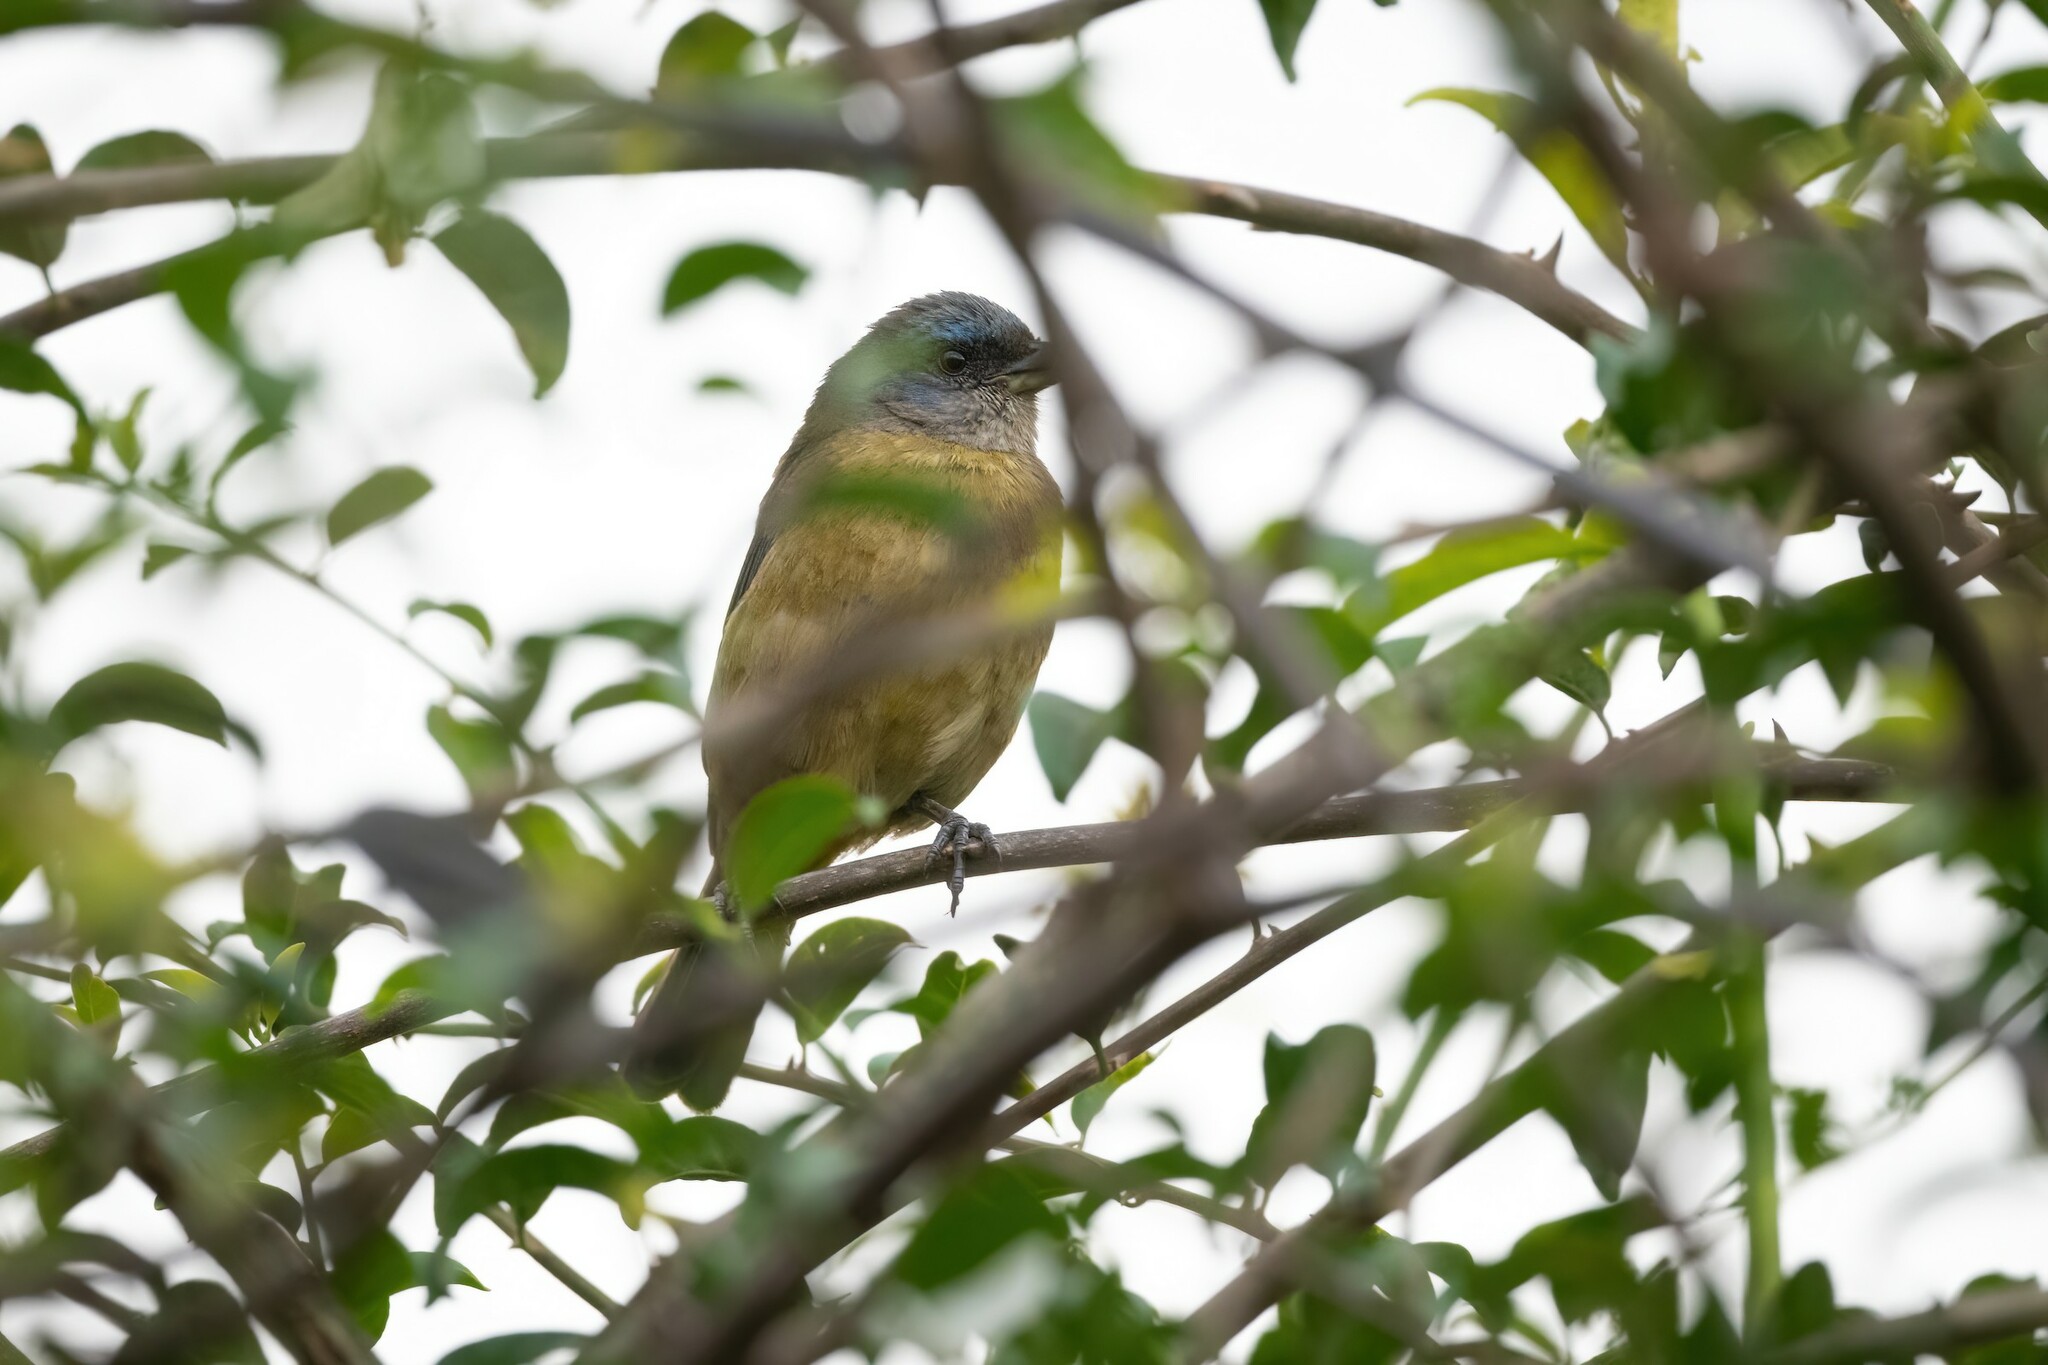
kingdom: Animalia
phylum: Chordata
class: Aves
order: Passeriformes
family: Thraupidae
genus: Rauenia
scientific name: Rauenia bonariensis
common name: Blue-and-yellow tanager
